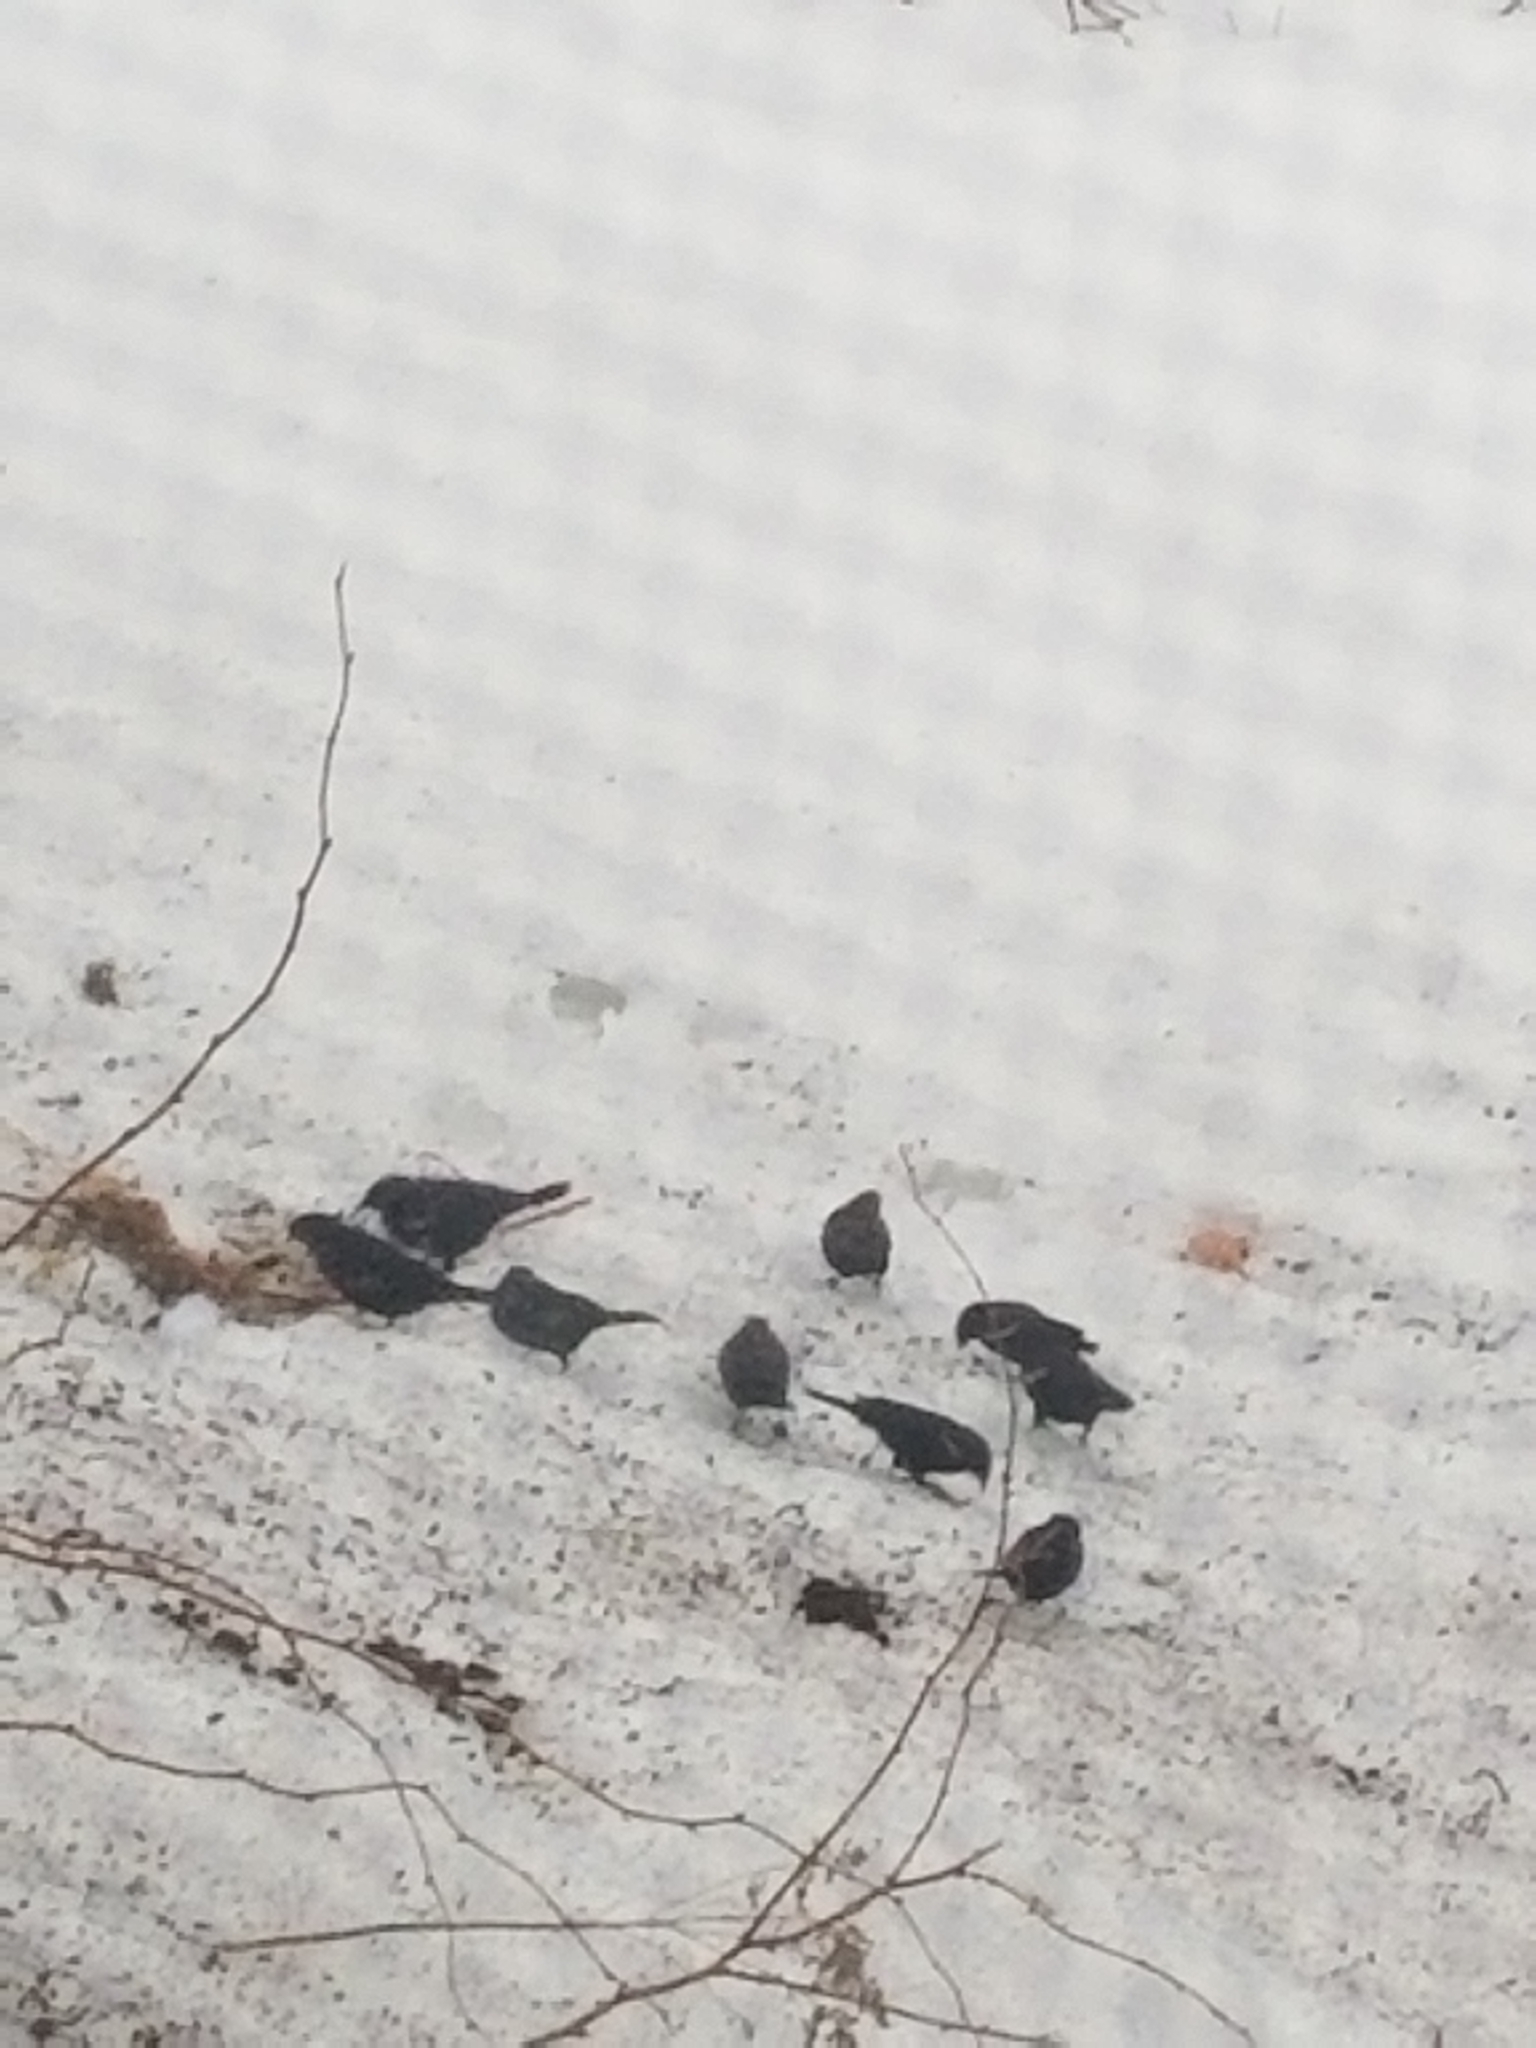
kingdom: Animalia
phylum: Chordata
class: Aves
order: Passeriformes
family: Icteridae
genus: Agelaius
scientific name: Agelaius phoeniceus
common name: Red-winged blackbird
